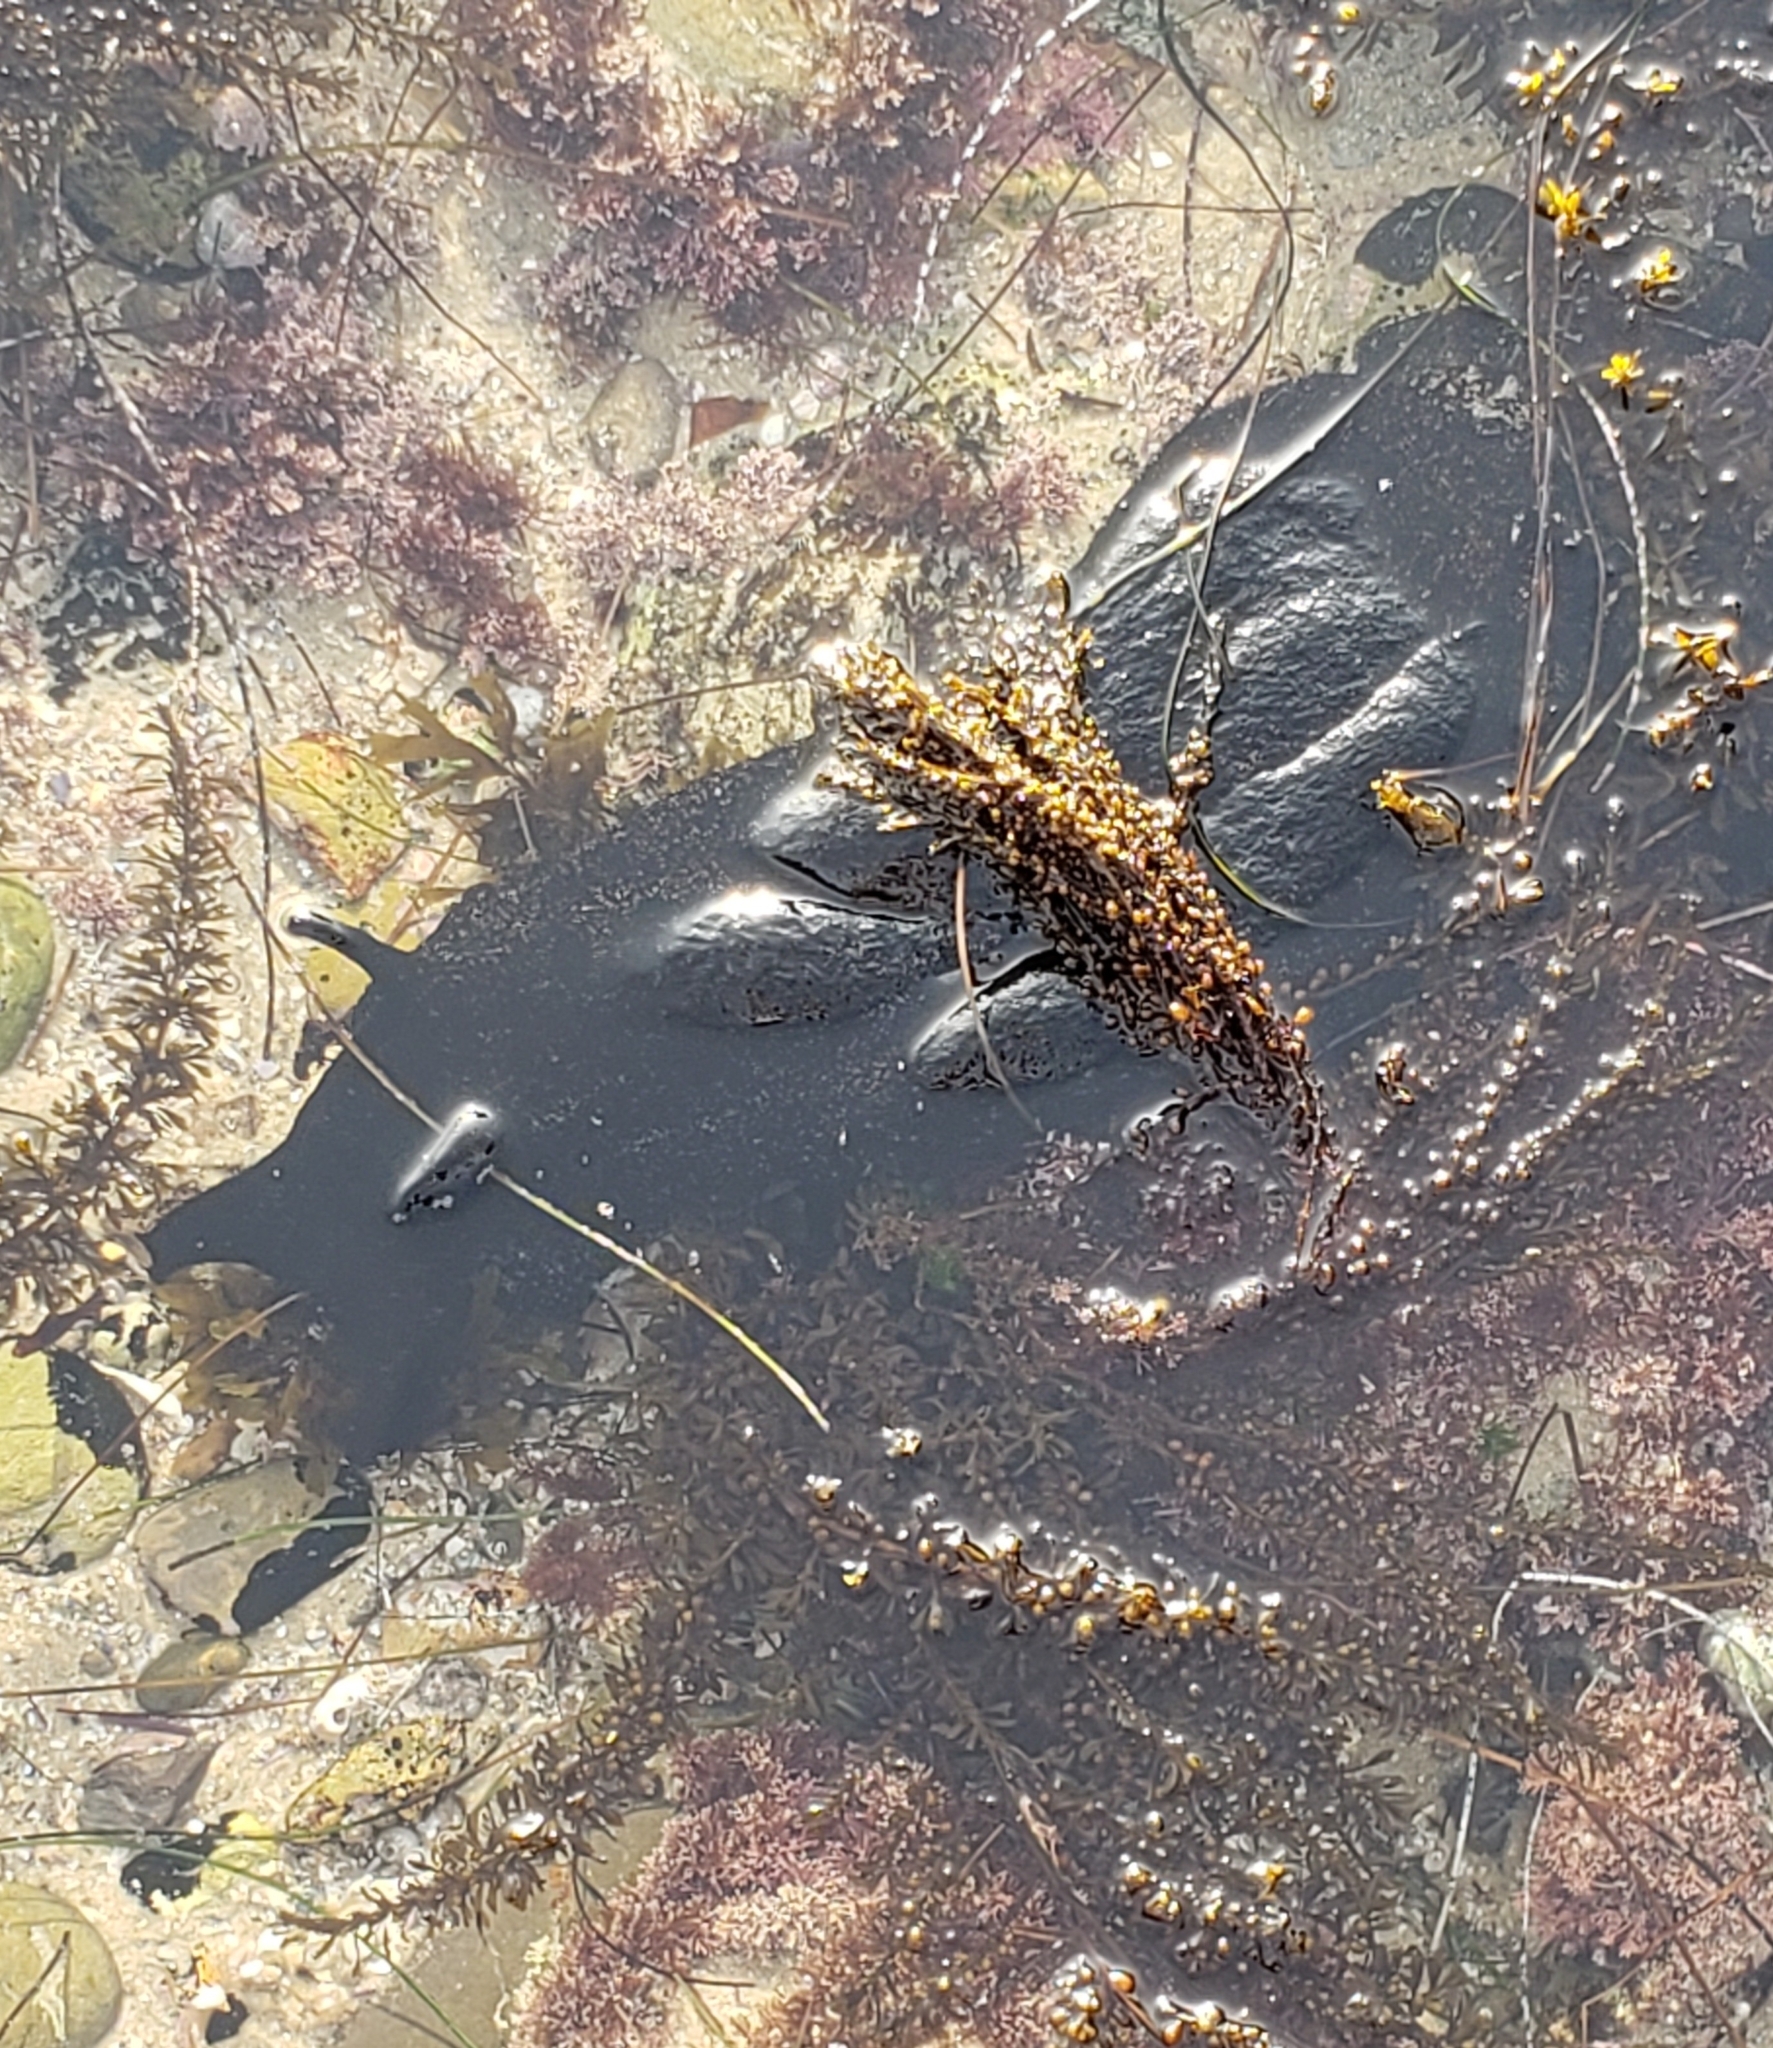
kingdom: Animalia
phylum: Mollusca
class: Gastropoda
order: Aplysiida
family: Aplysiidae
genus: Aplysia
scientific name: Aplysia vaccaria
